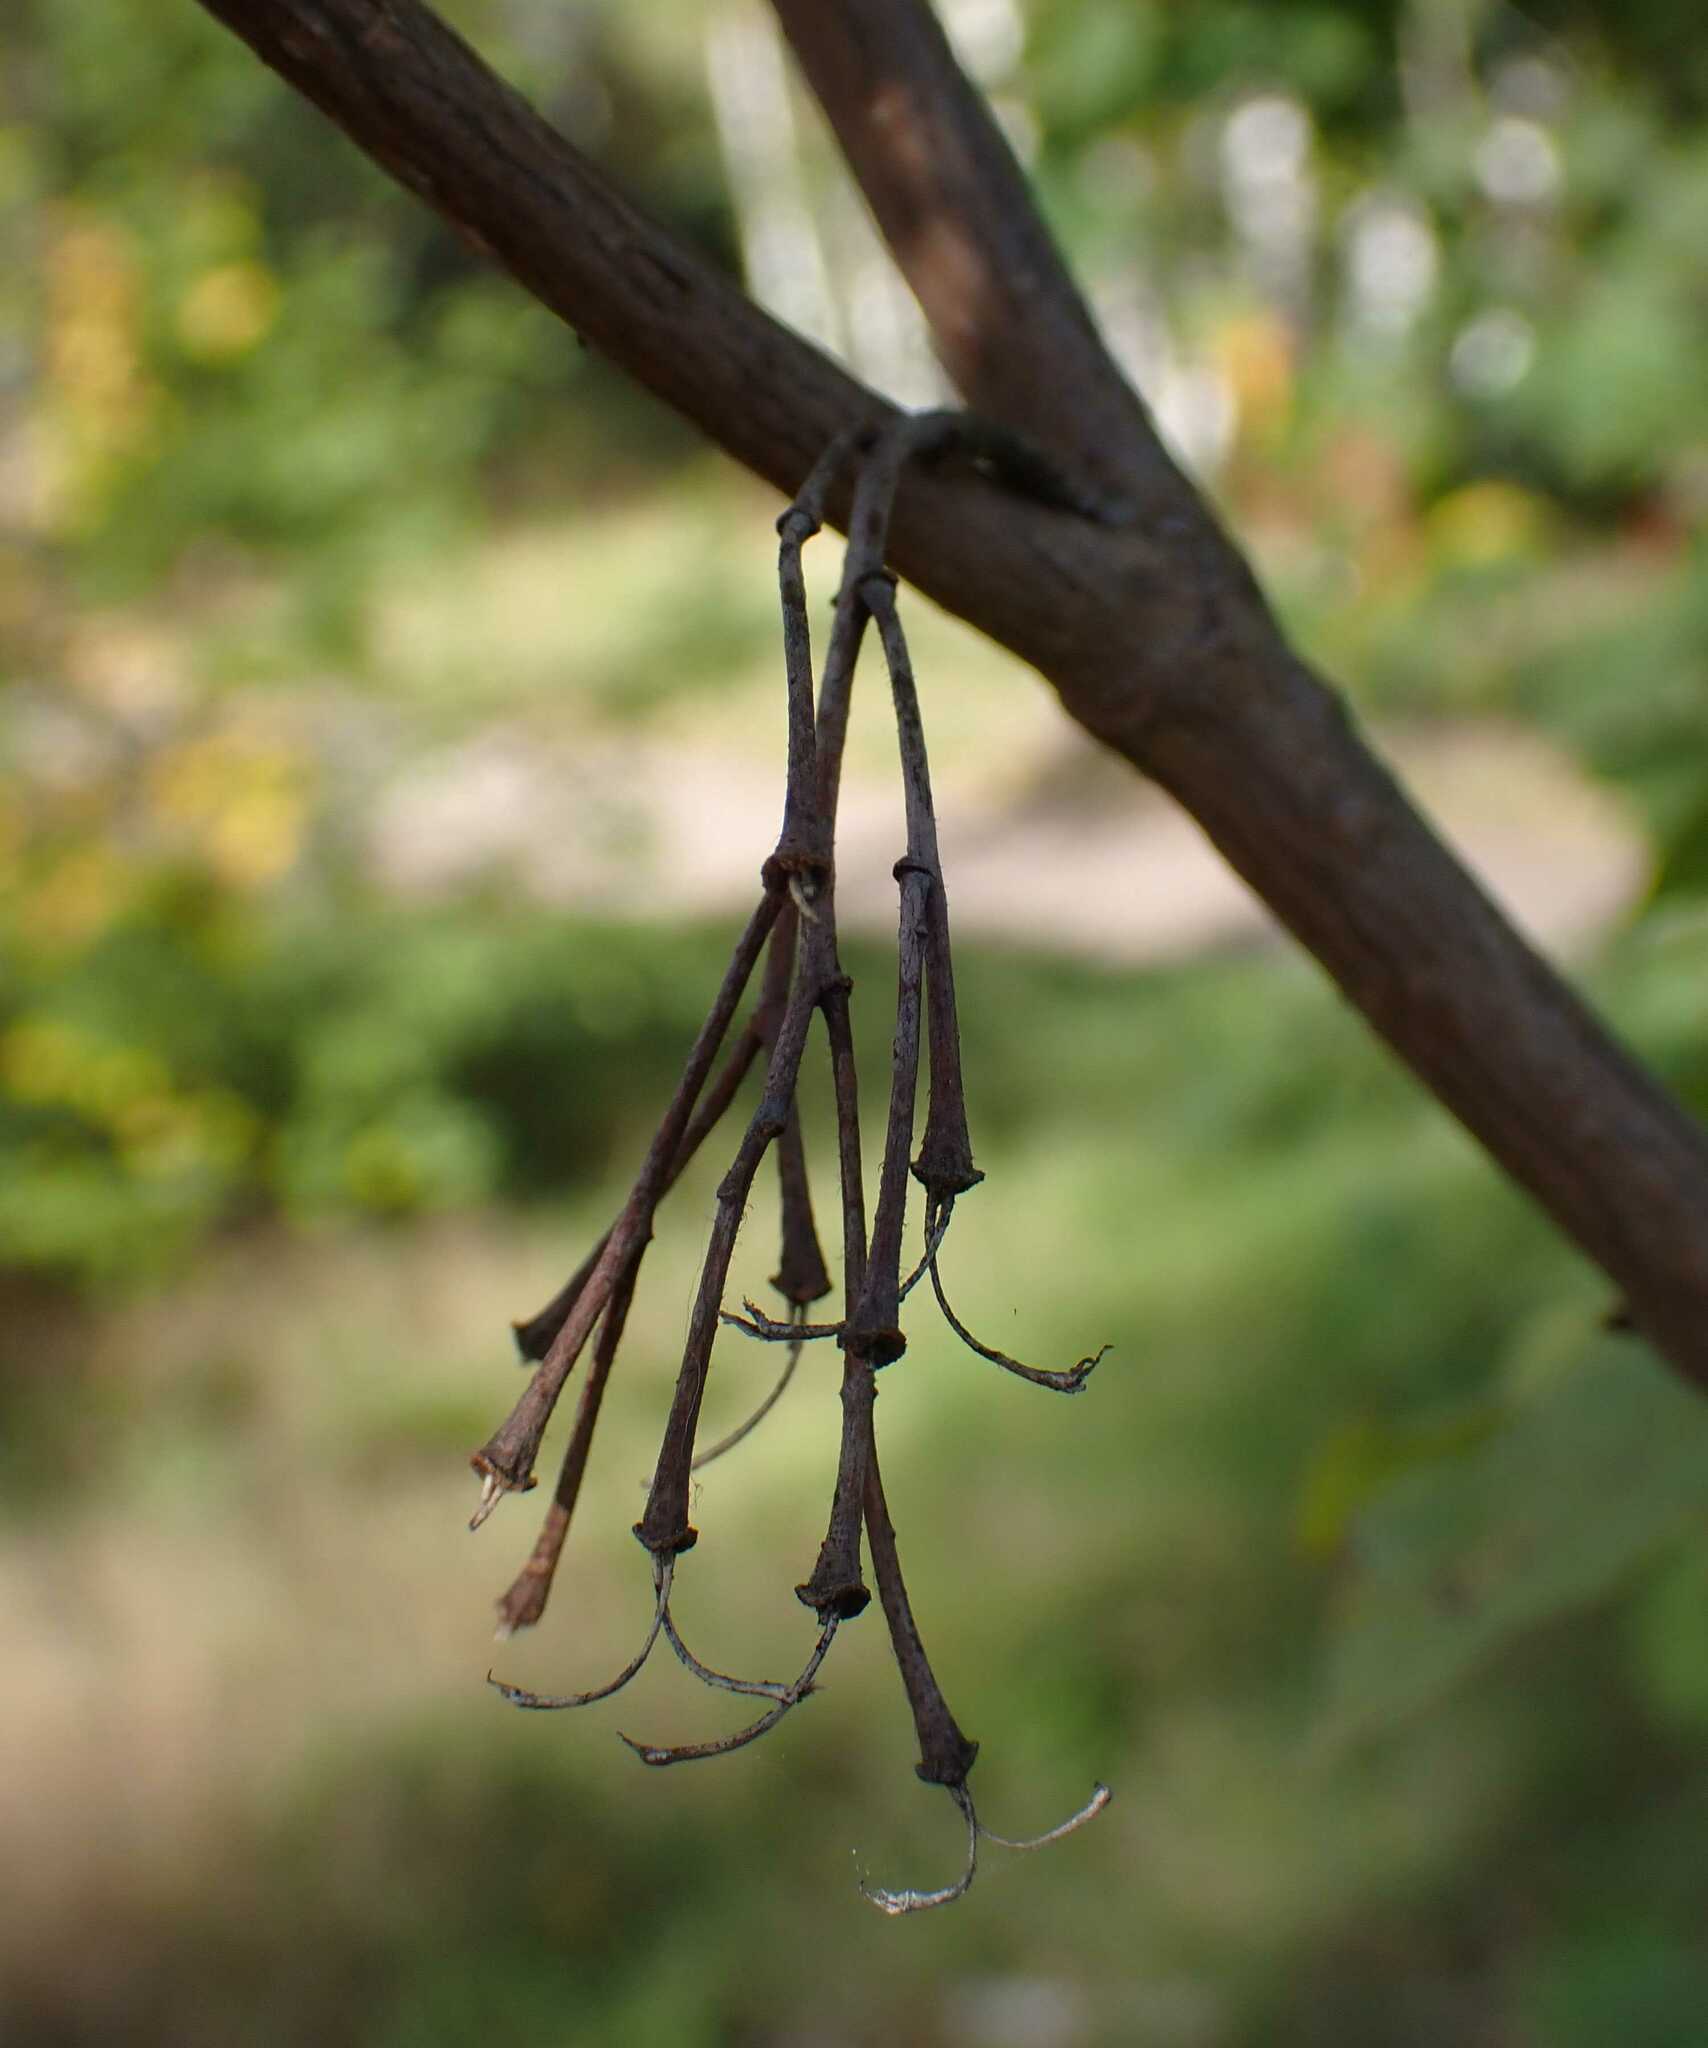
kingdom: Plantae
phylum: Tracheophyta
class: Magnoliopsida
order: Sapindales
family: Sapindaceae
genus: Acer
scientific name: Acer campestre
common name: Field maple
